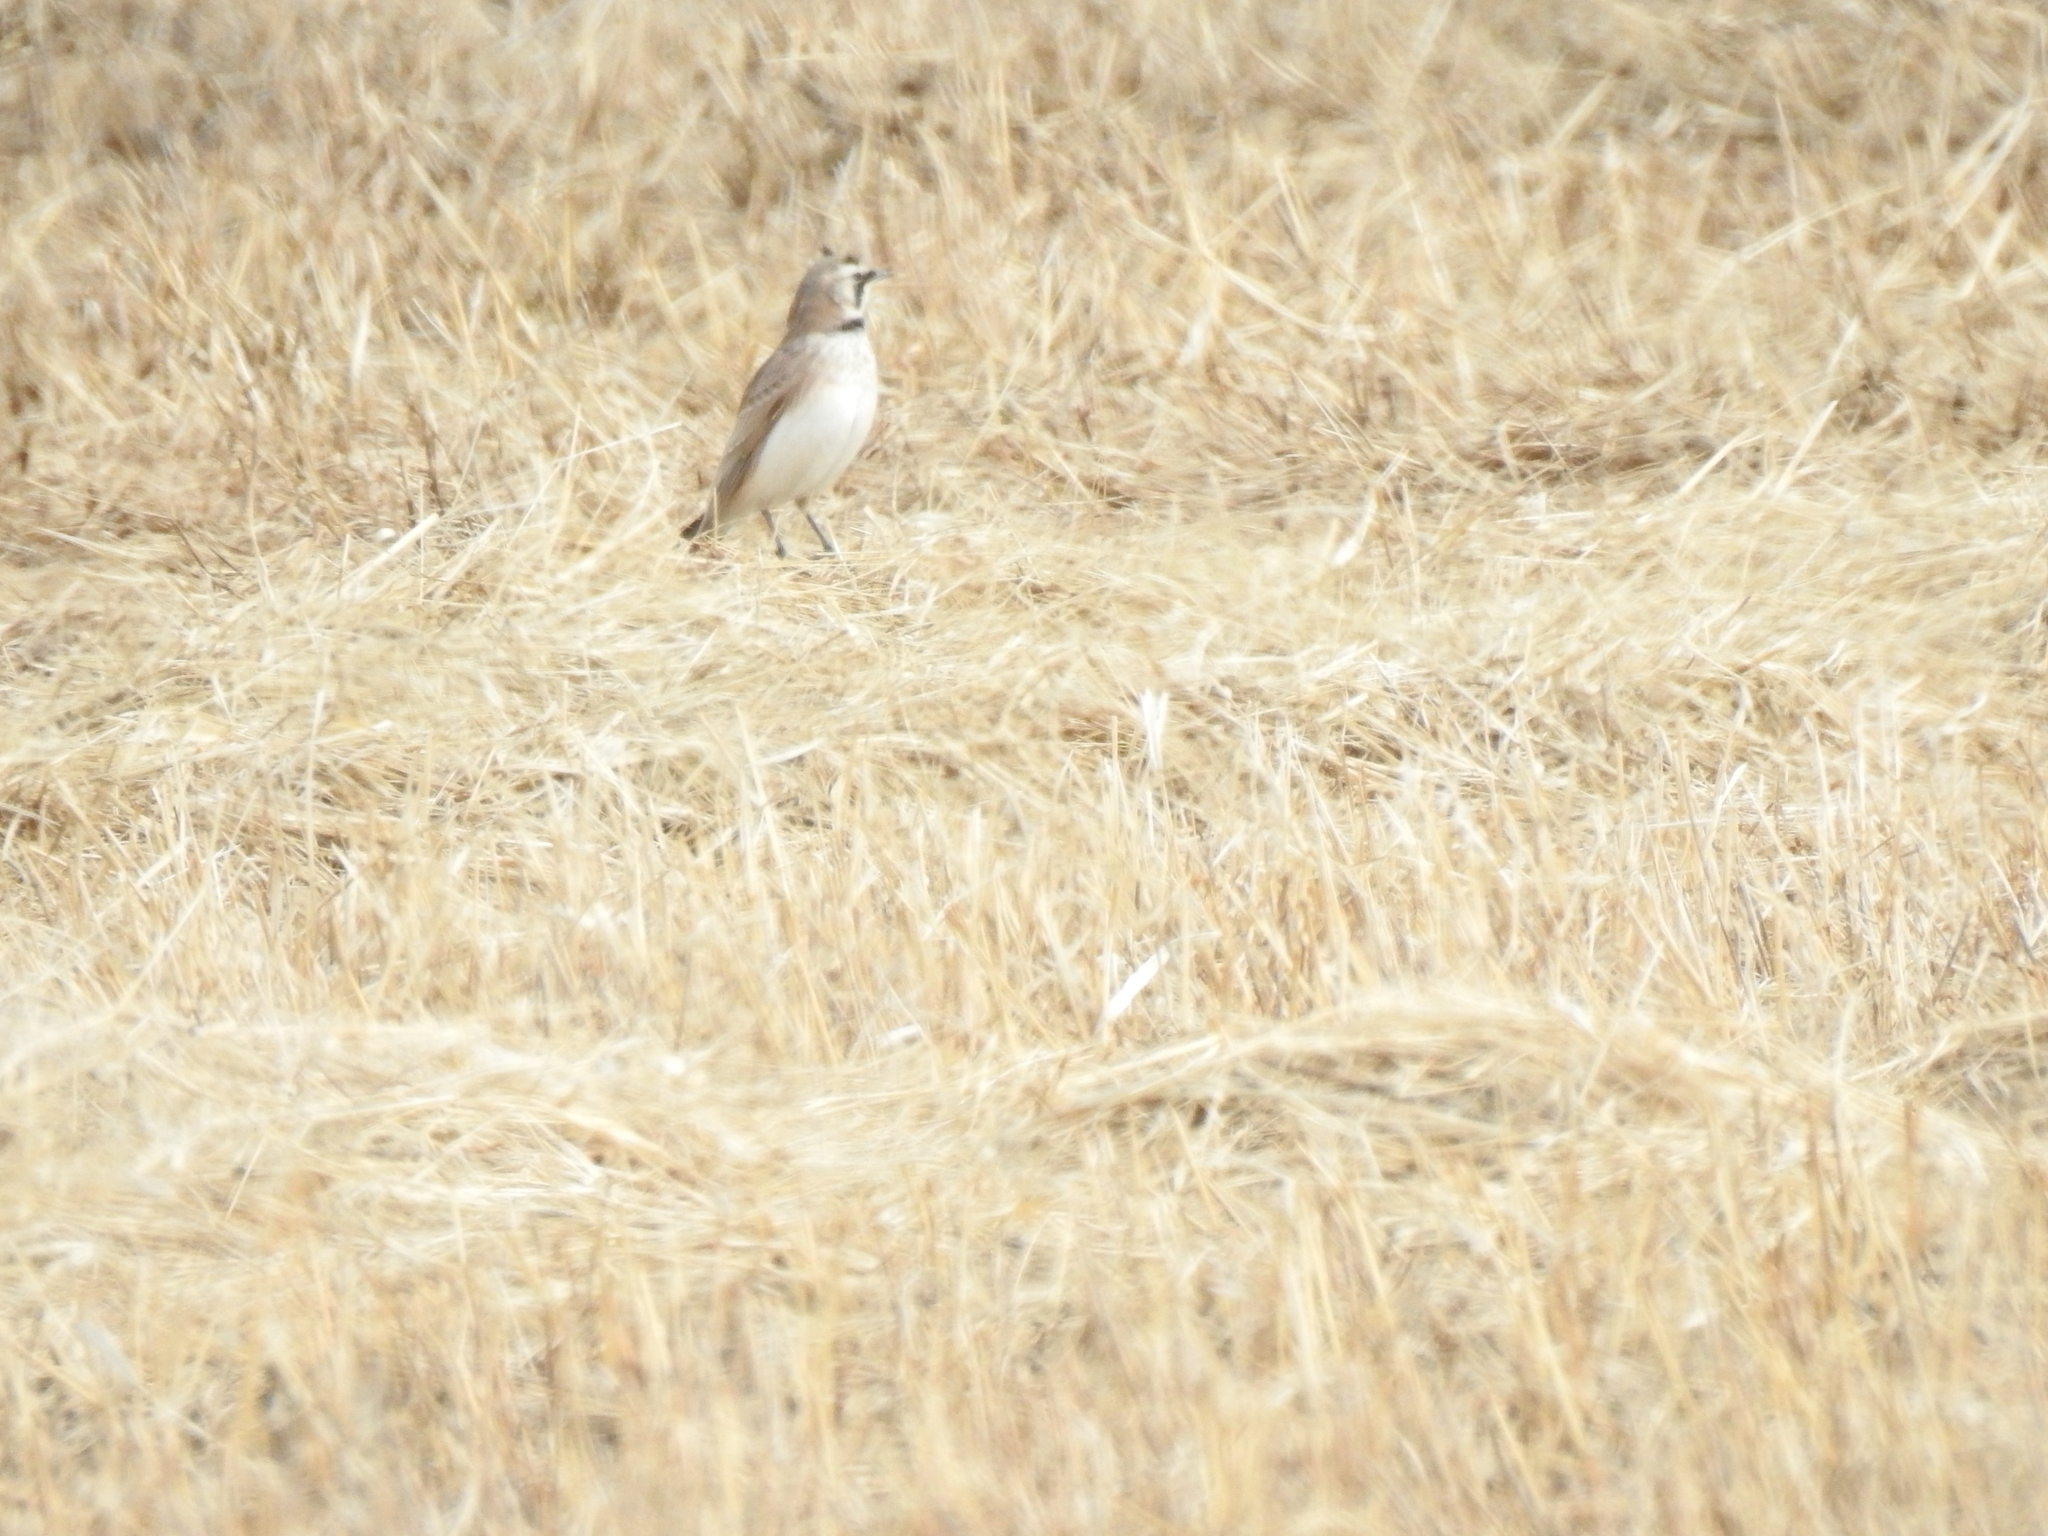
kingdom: Animalia
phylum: Chordata
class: Aves
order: Passeriformes
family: Alaudidae
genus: Eremophila
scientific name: Eremophila alpestris
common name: Horned lark
